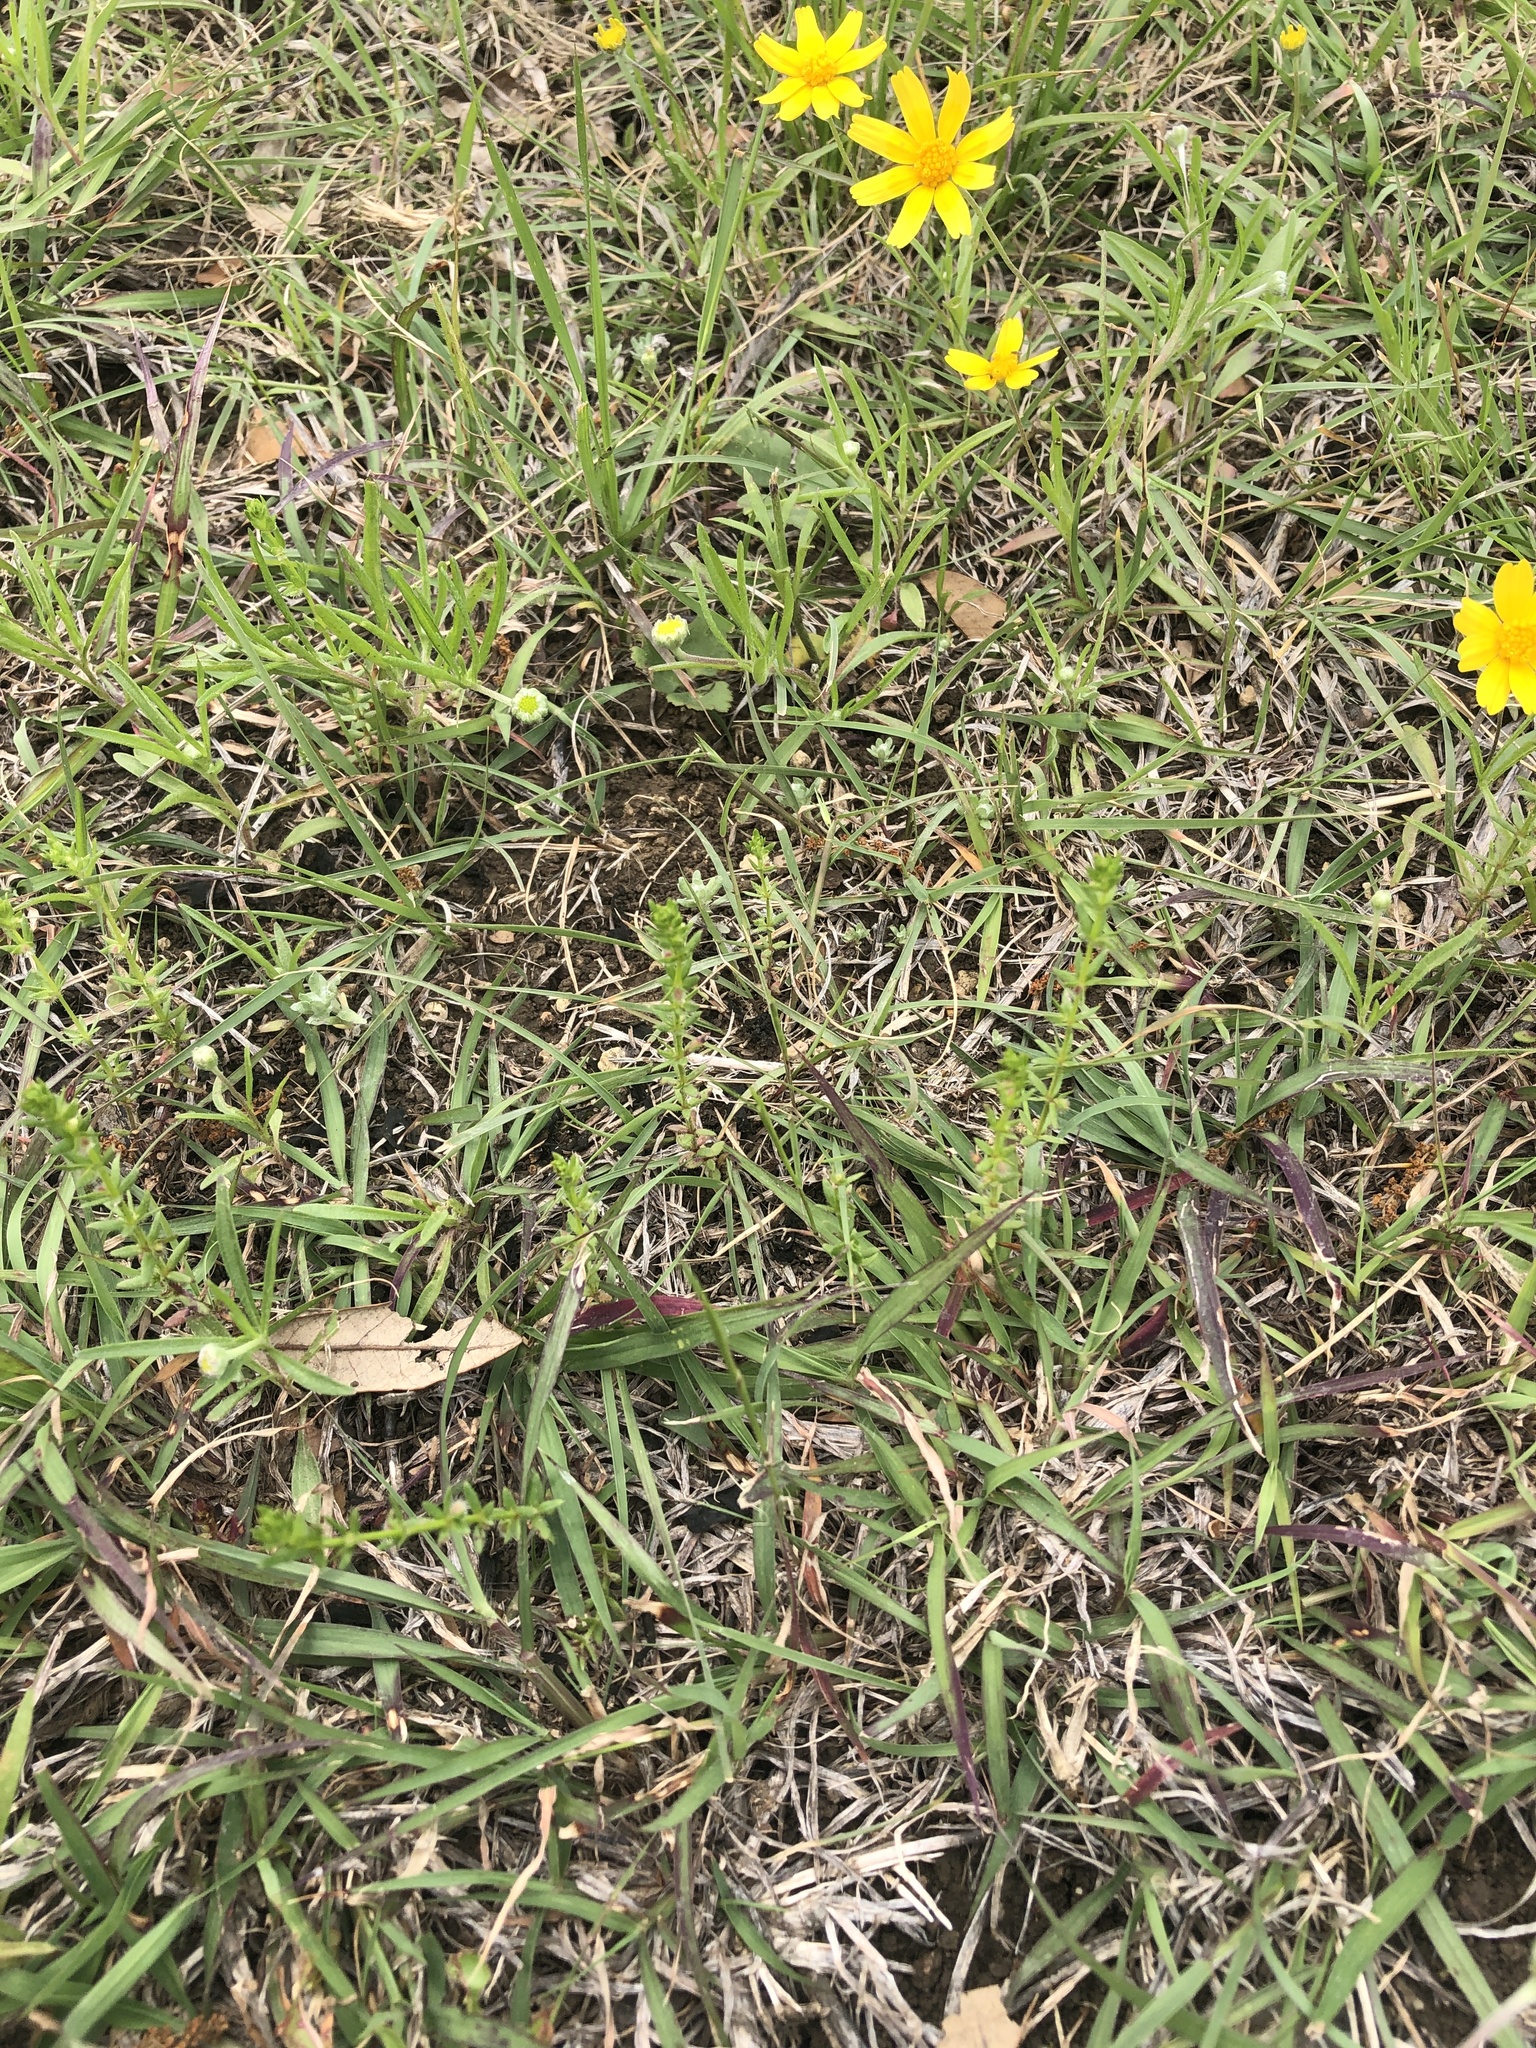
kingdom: Plantae
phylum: Tracheophyta
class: Magnoliopsida
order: Gentianales
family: Rubiaceae
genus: Galium
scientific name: Galium virgatum
